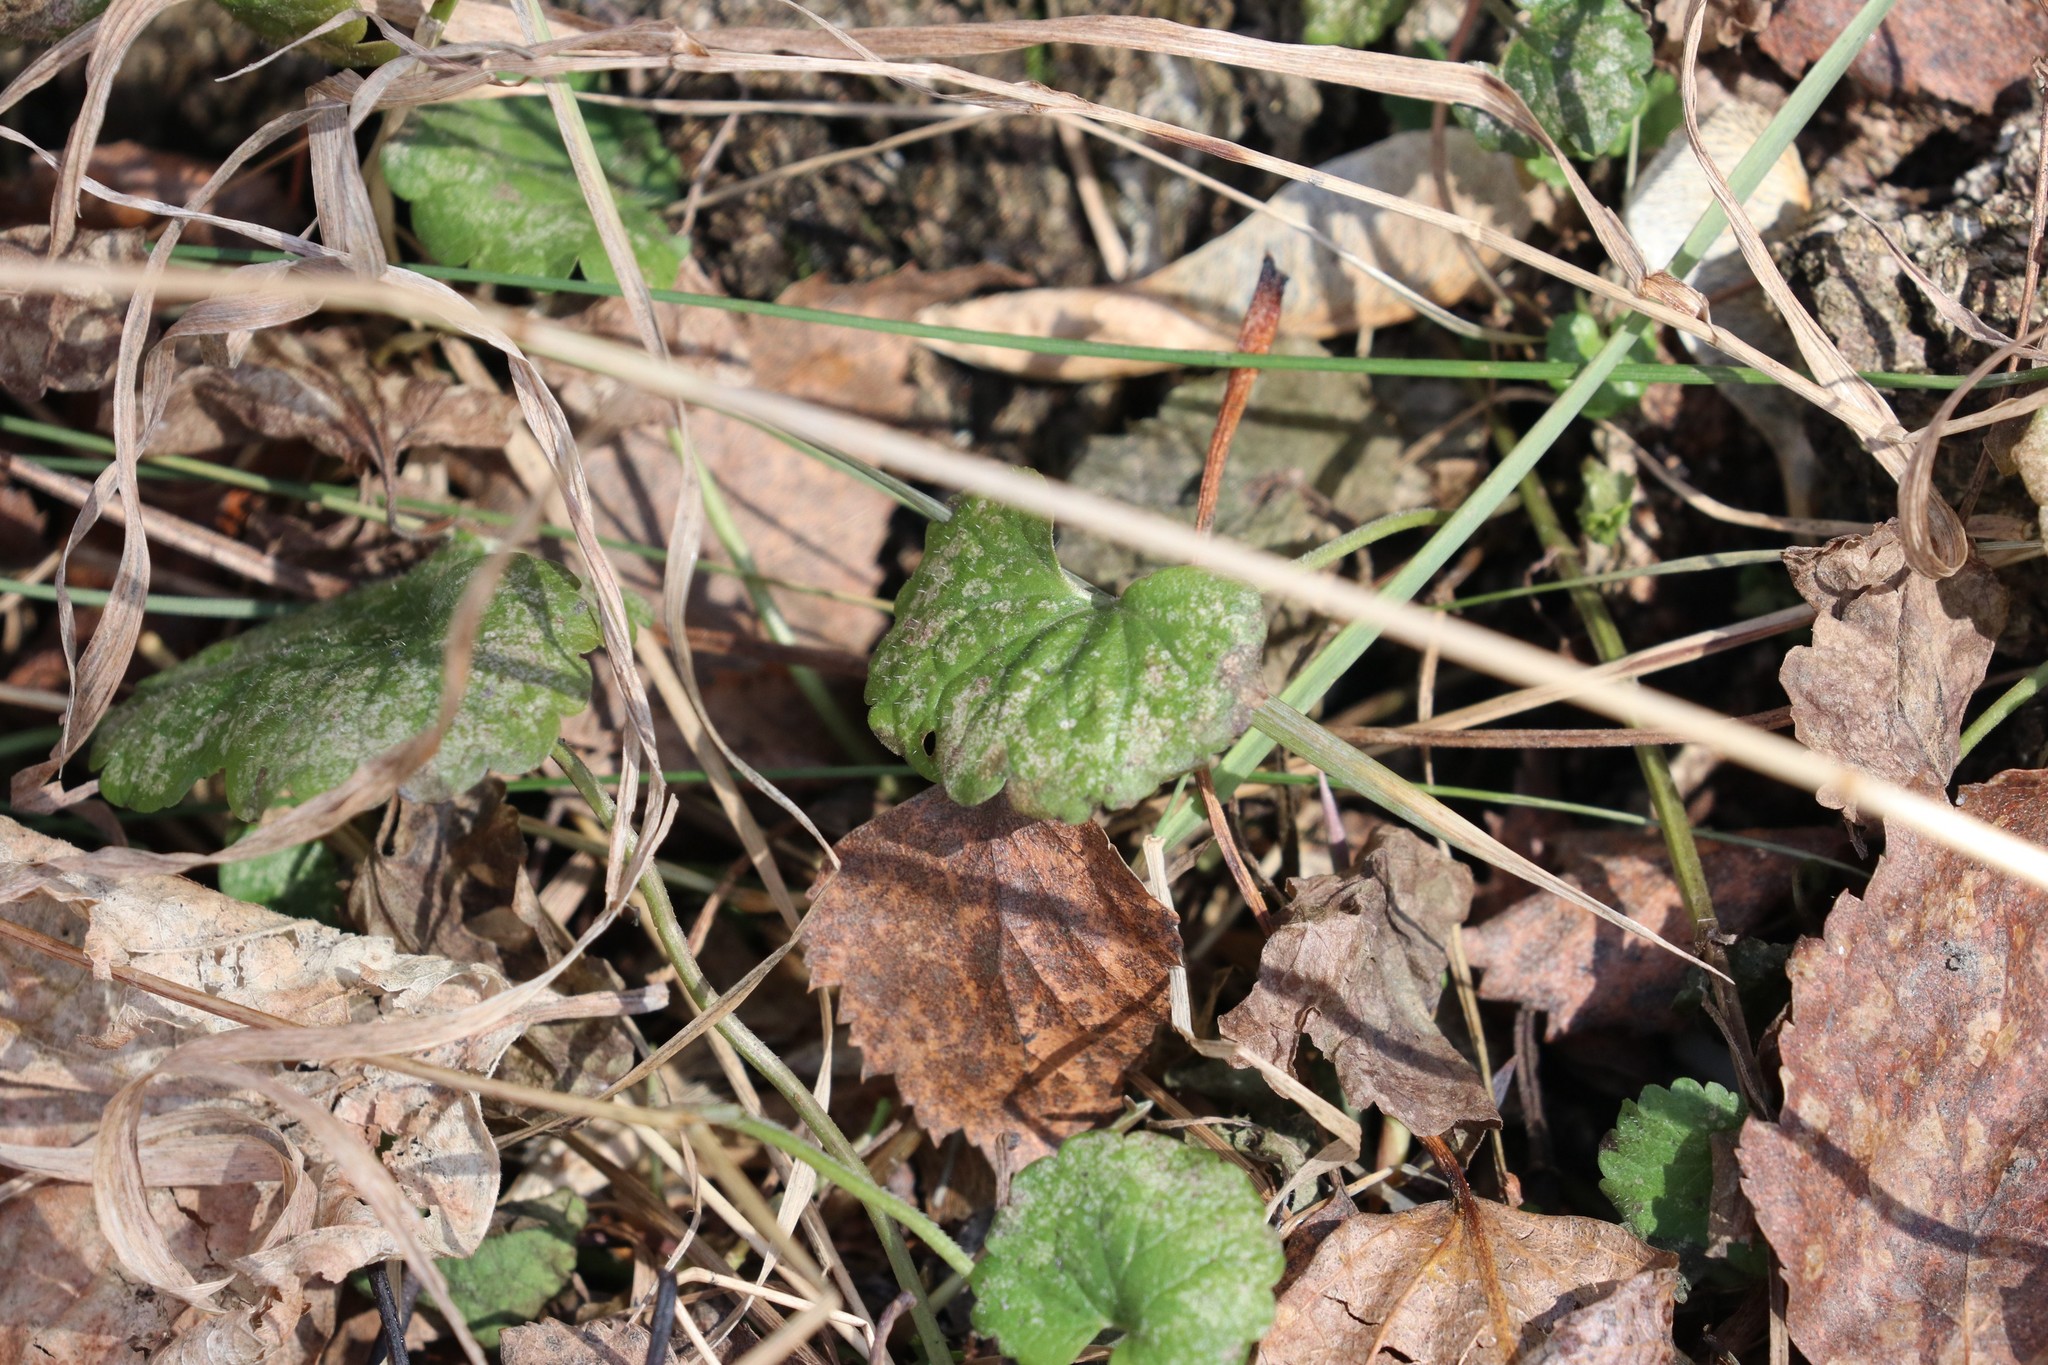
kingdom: Plantae
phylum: Tracheophyta
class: Magnoliopsida
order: Lamiales
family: Lamiaceae
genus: Glechoma
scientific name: Glechoma hederacea
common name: Ground ivy
